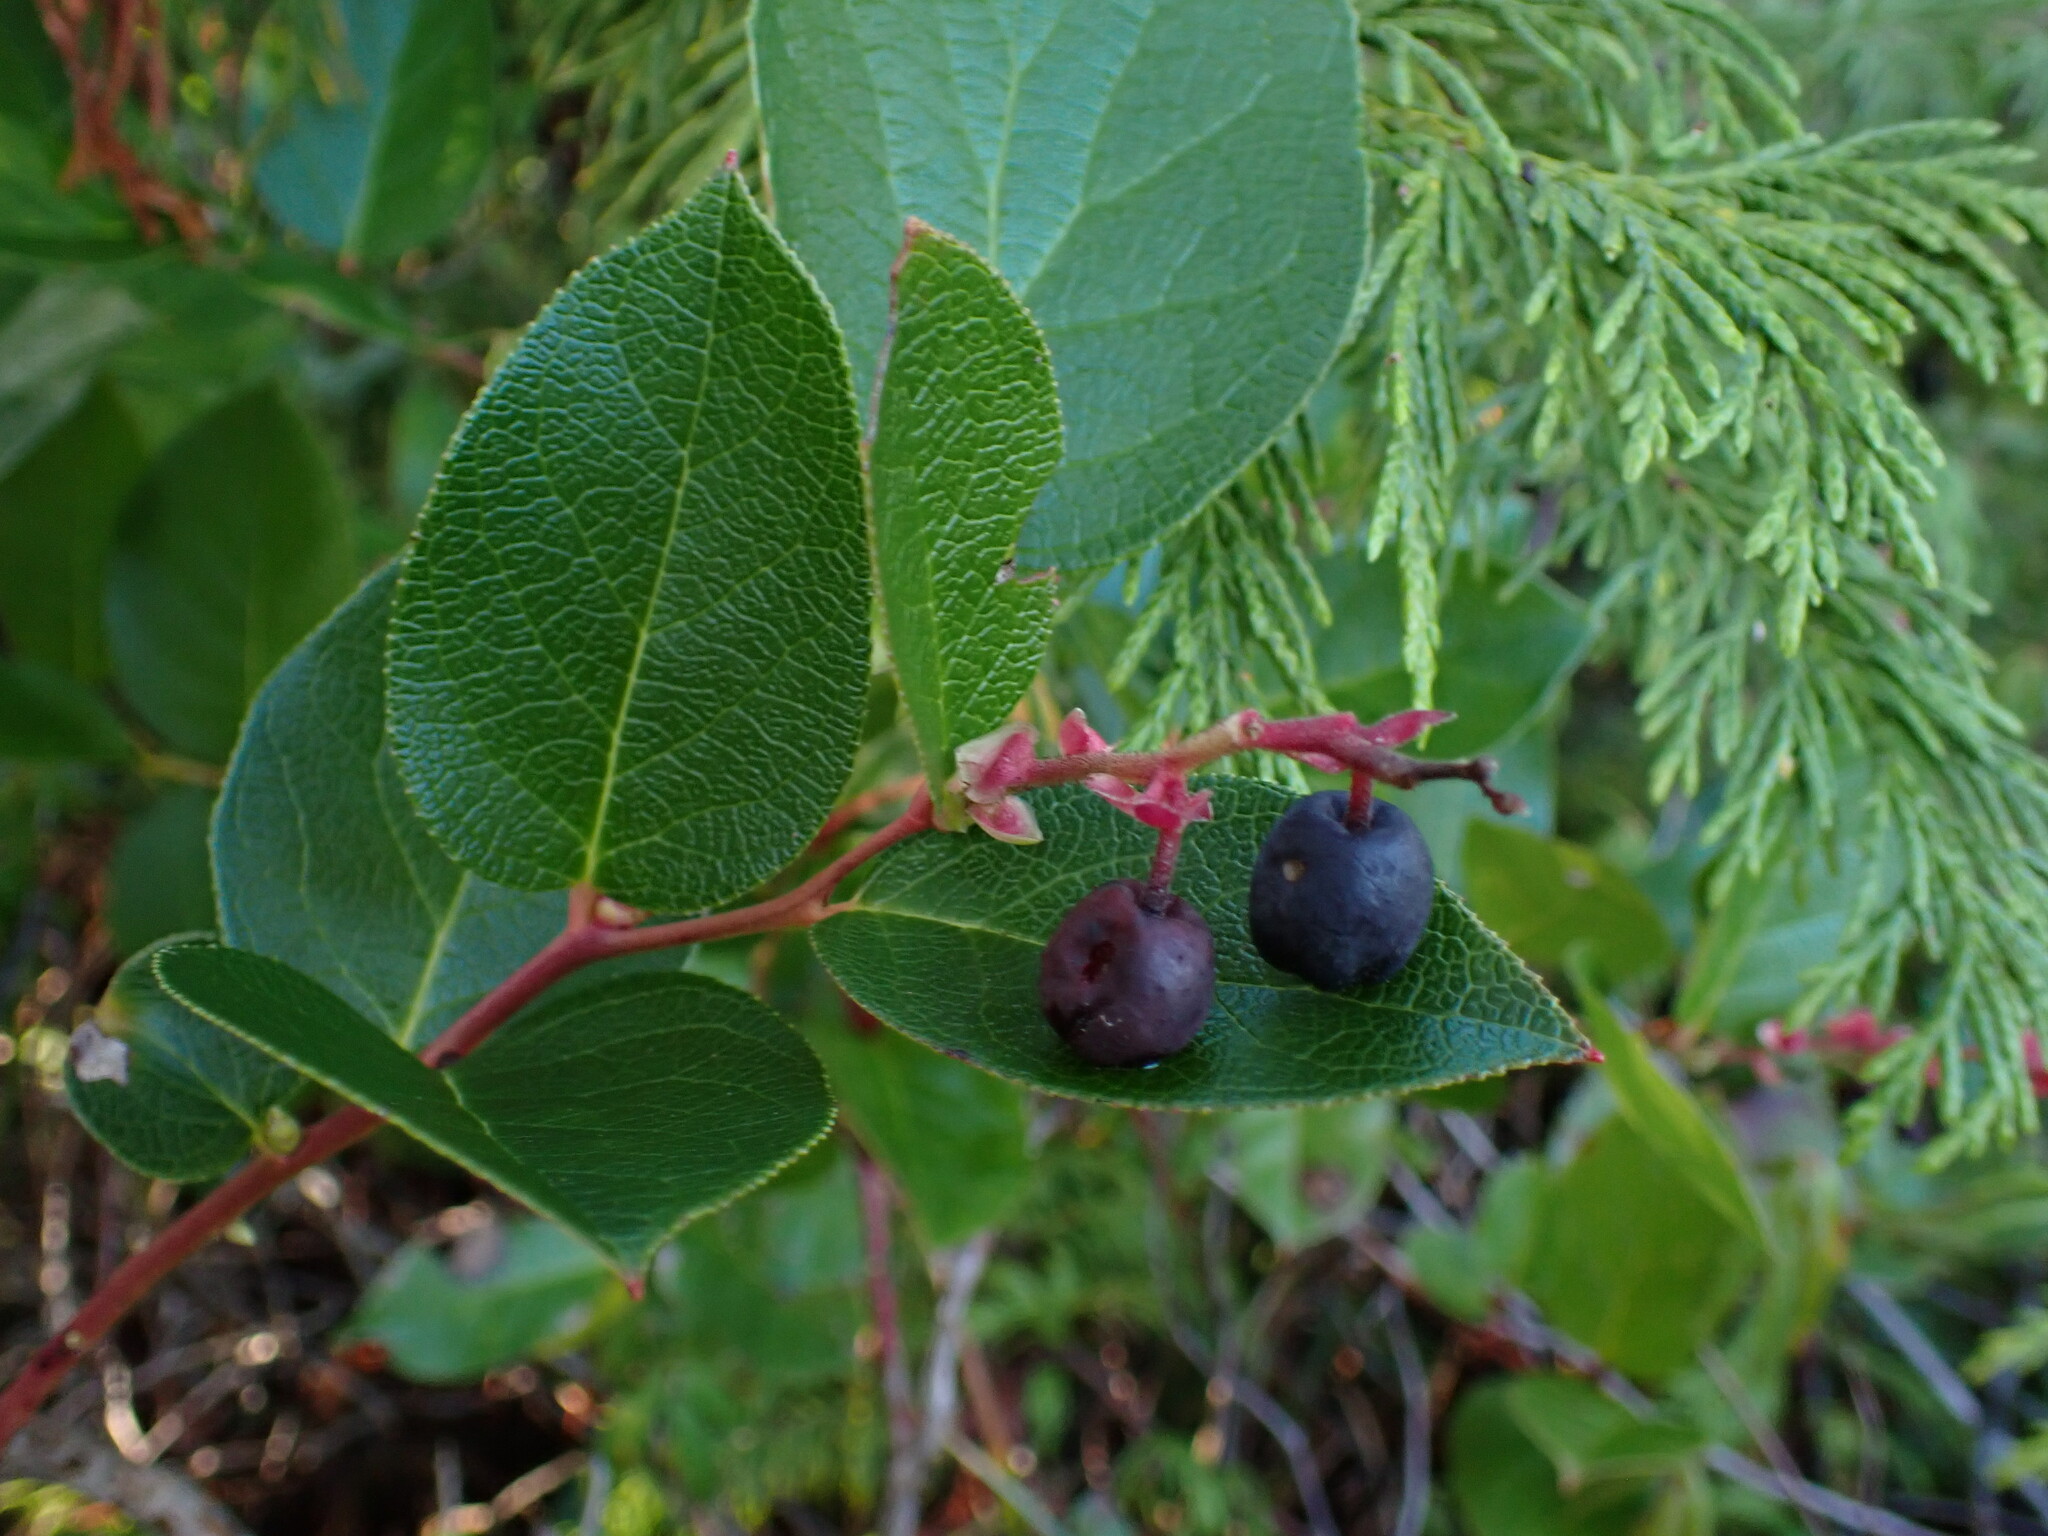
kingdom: Plantae
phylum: Tracheophyta
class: Magnoliopsida
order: Ericales
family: Ericaceae
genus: Gaultheria
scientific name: Gaultheria shallon
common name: Shallon
